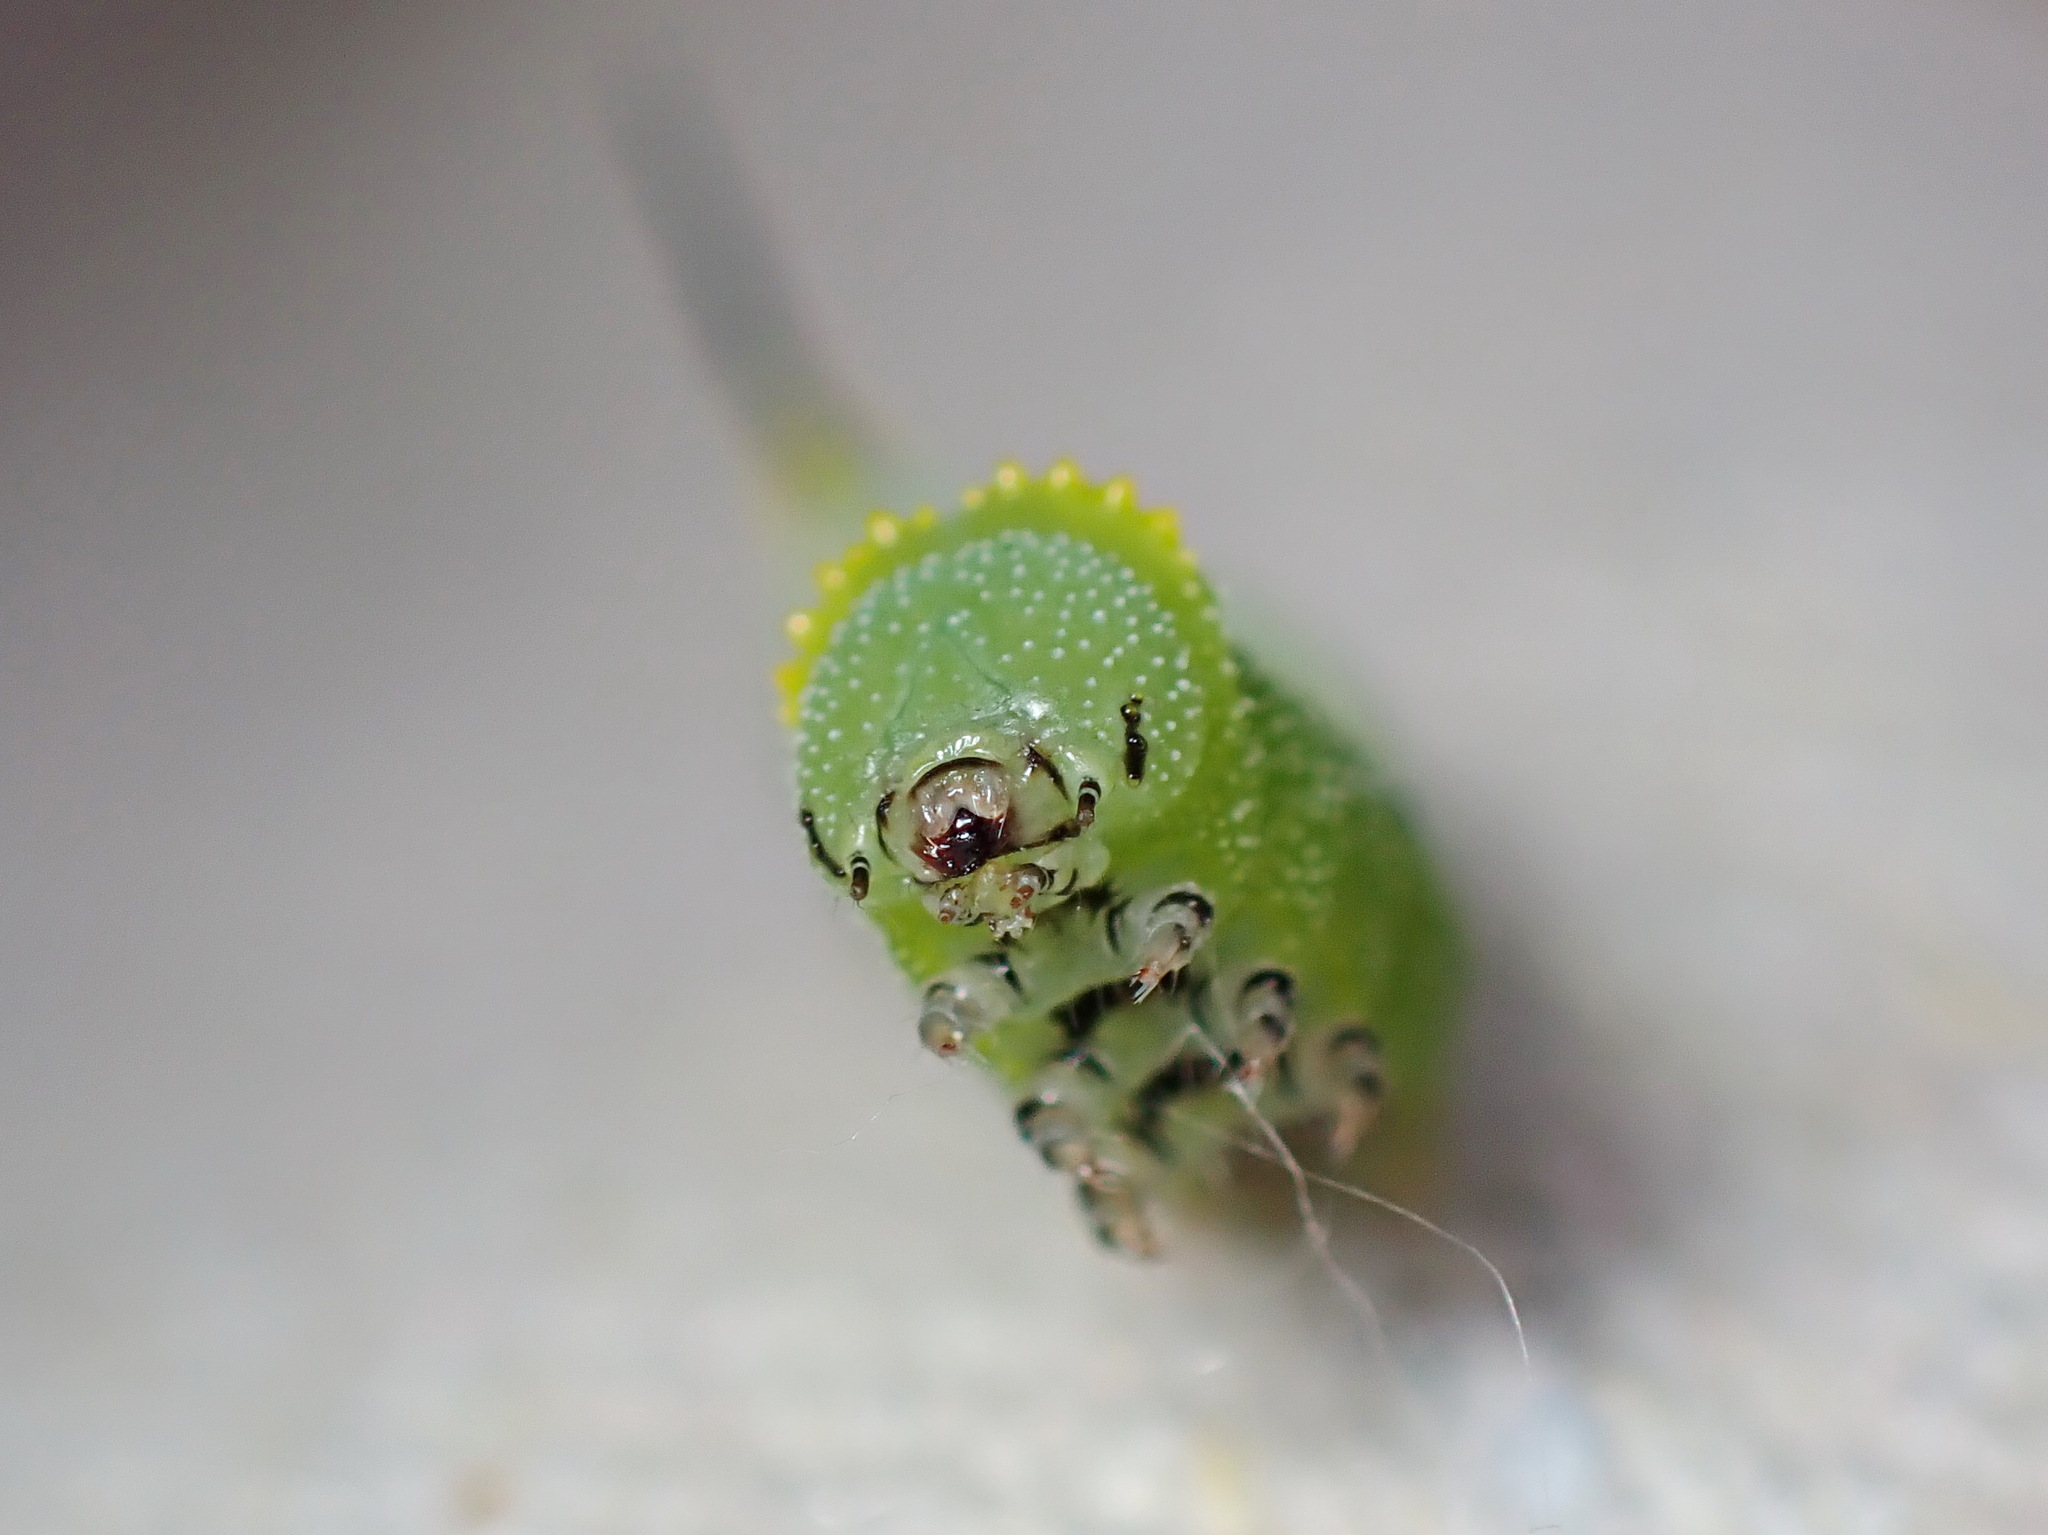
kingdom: Animalia
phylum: Arthropoda
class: Insecta
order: Lepidoptera
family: Sphingidae
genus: Hemaris
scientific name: Hemaris diffinis
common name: Bumblebee moth
